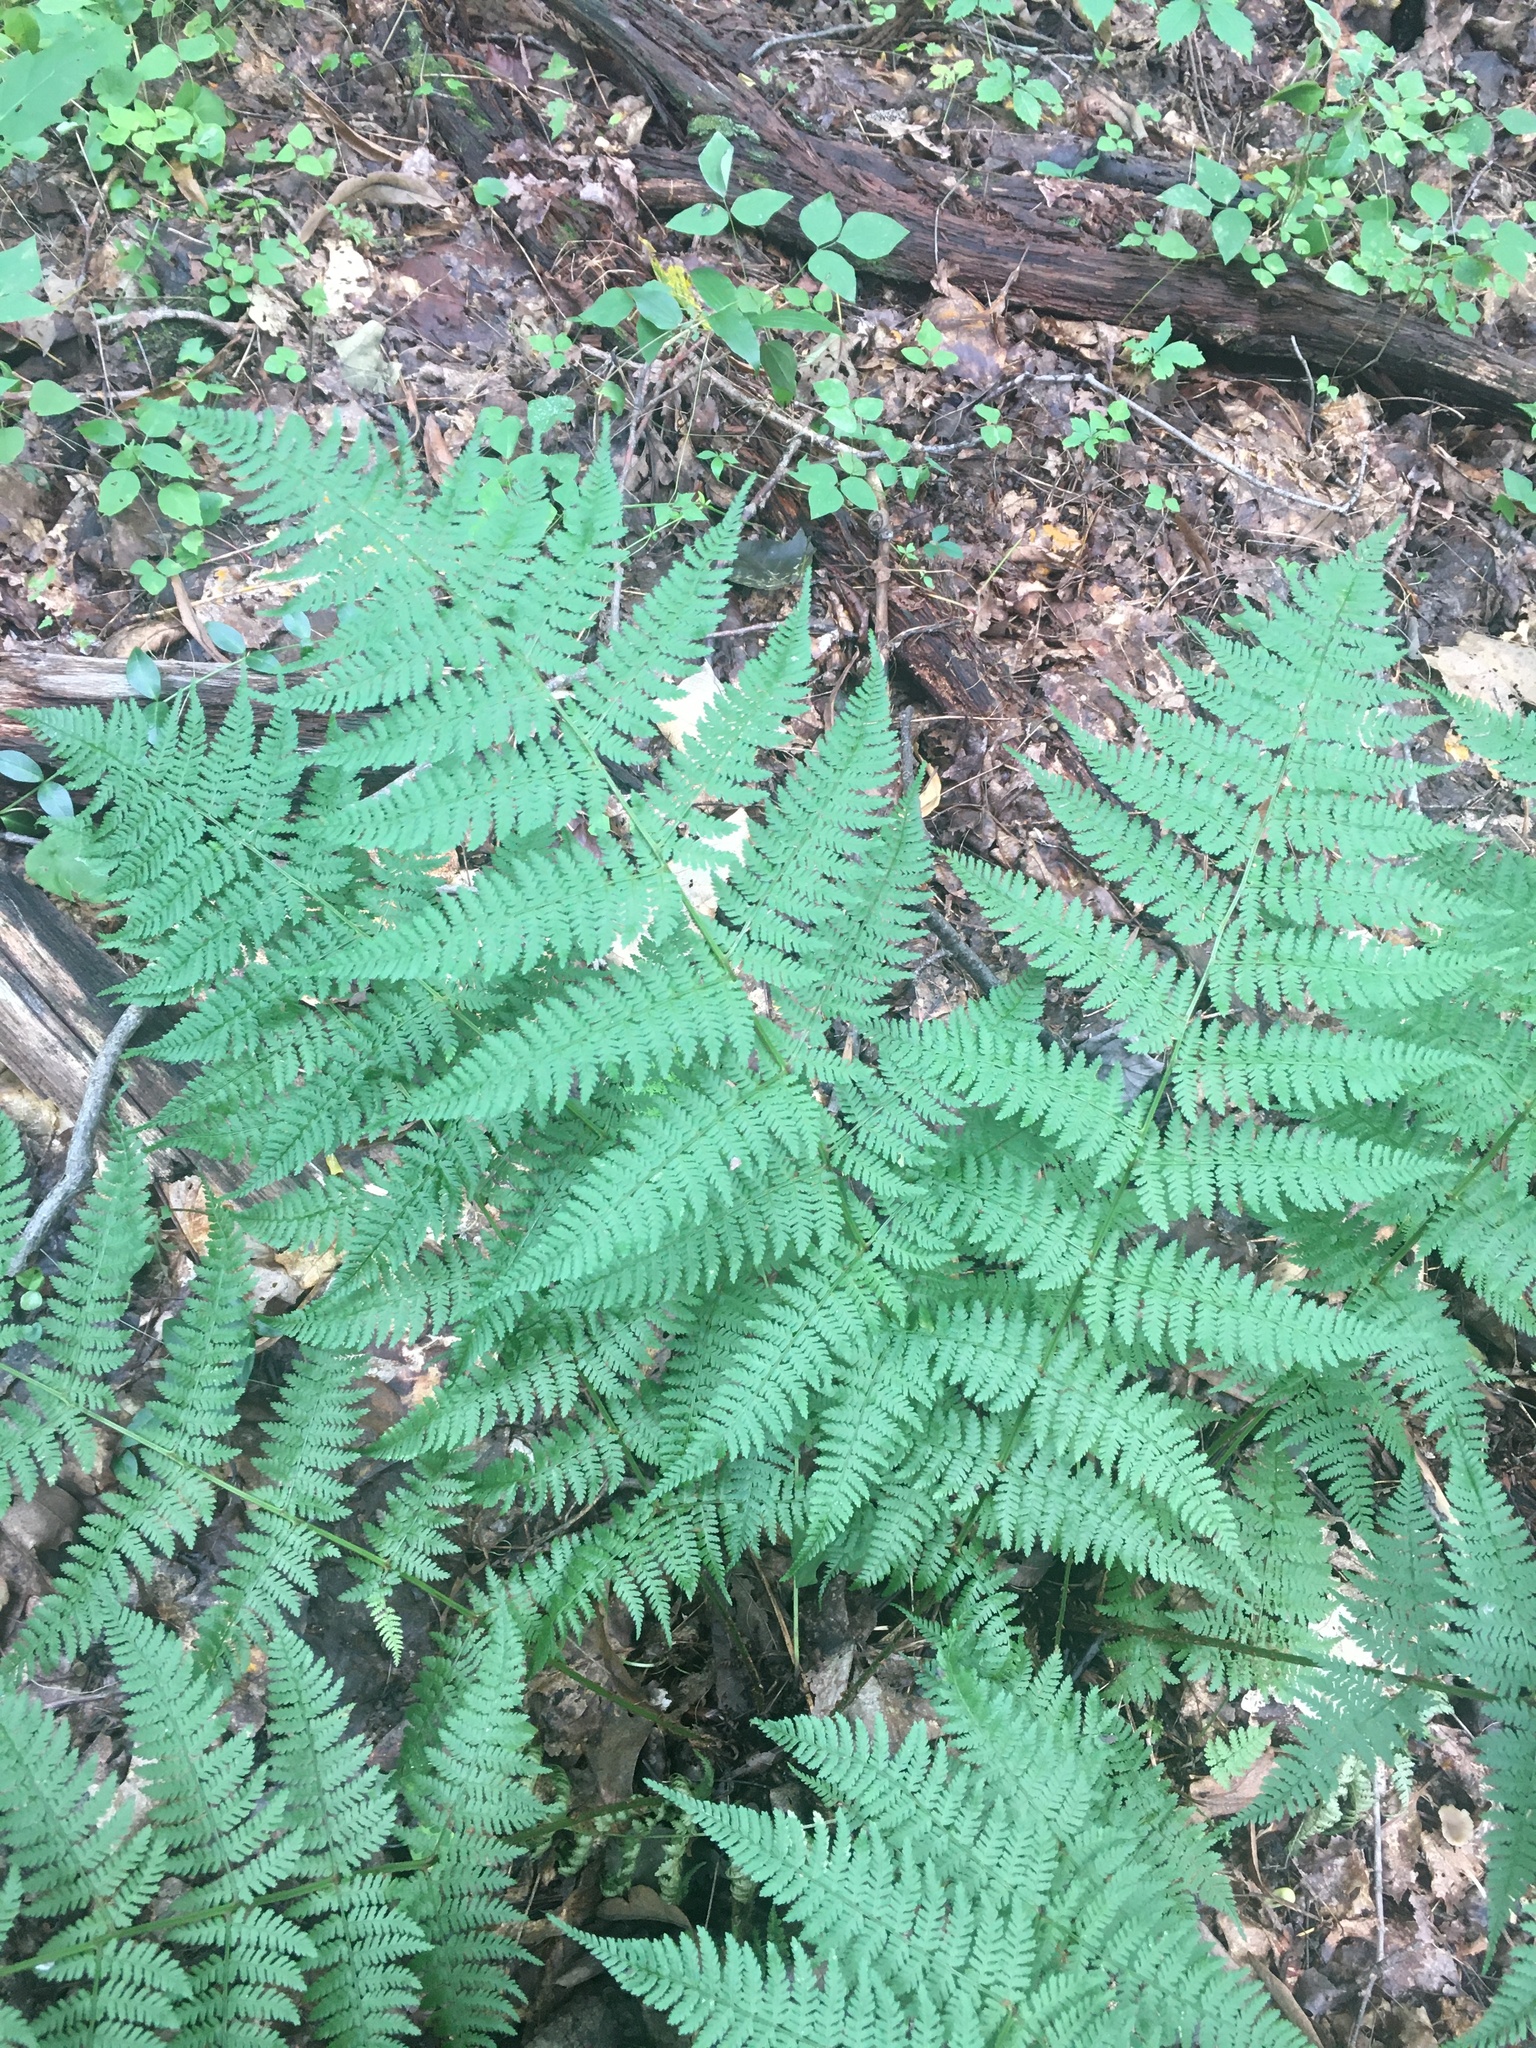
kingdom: Plantae
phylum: Tracheophyta
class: Polypodiopsida
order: Polypodiales
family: Dryopteridaceae
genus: Dryopteris
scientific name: Dryopteris intermedia
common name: Evergreen wood fern
